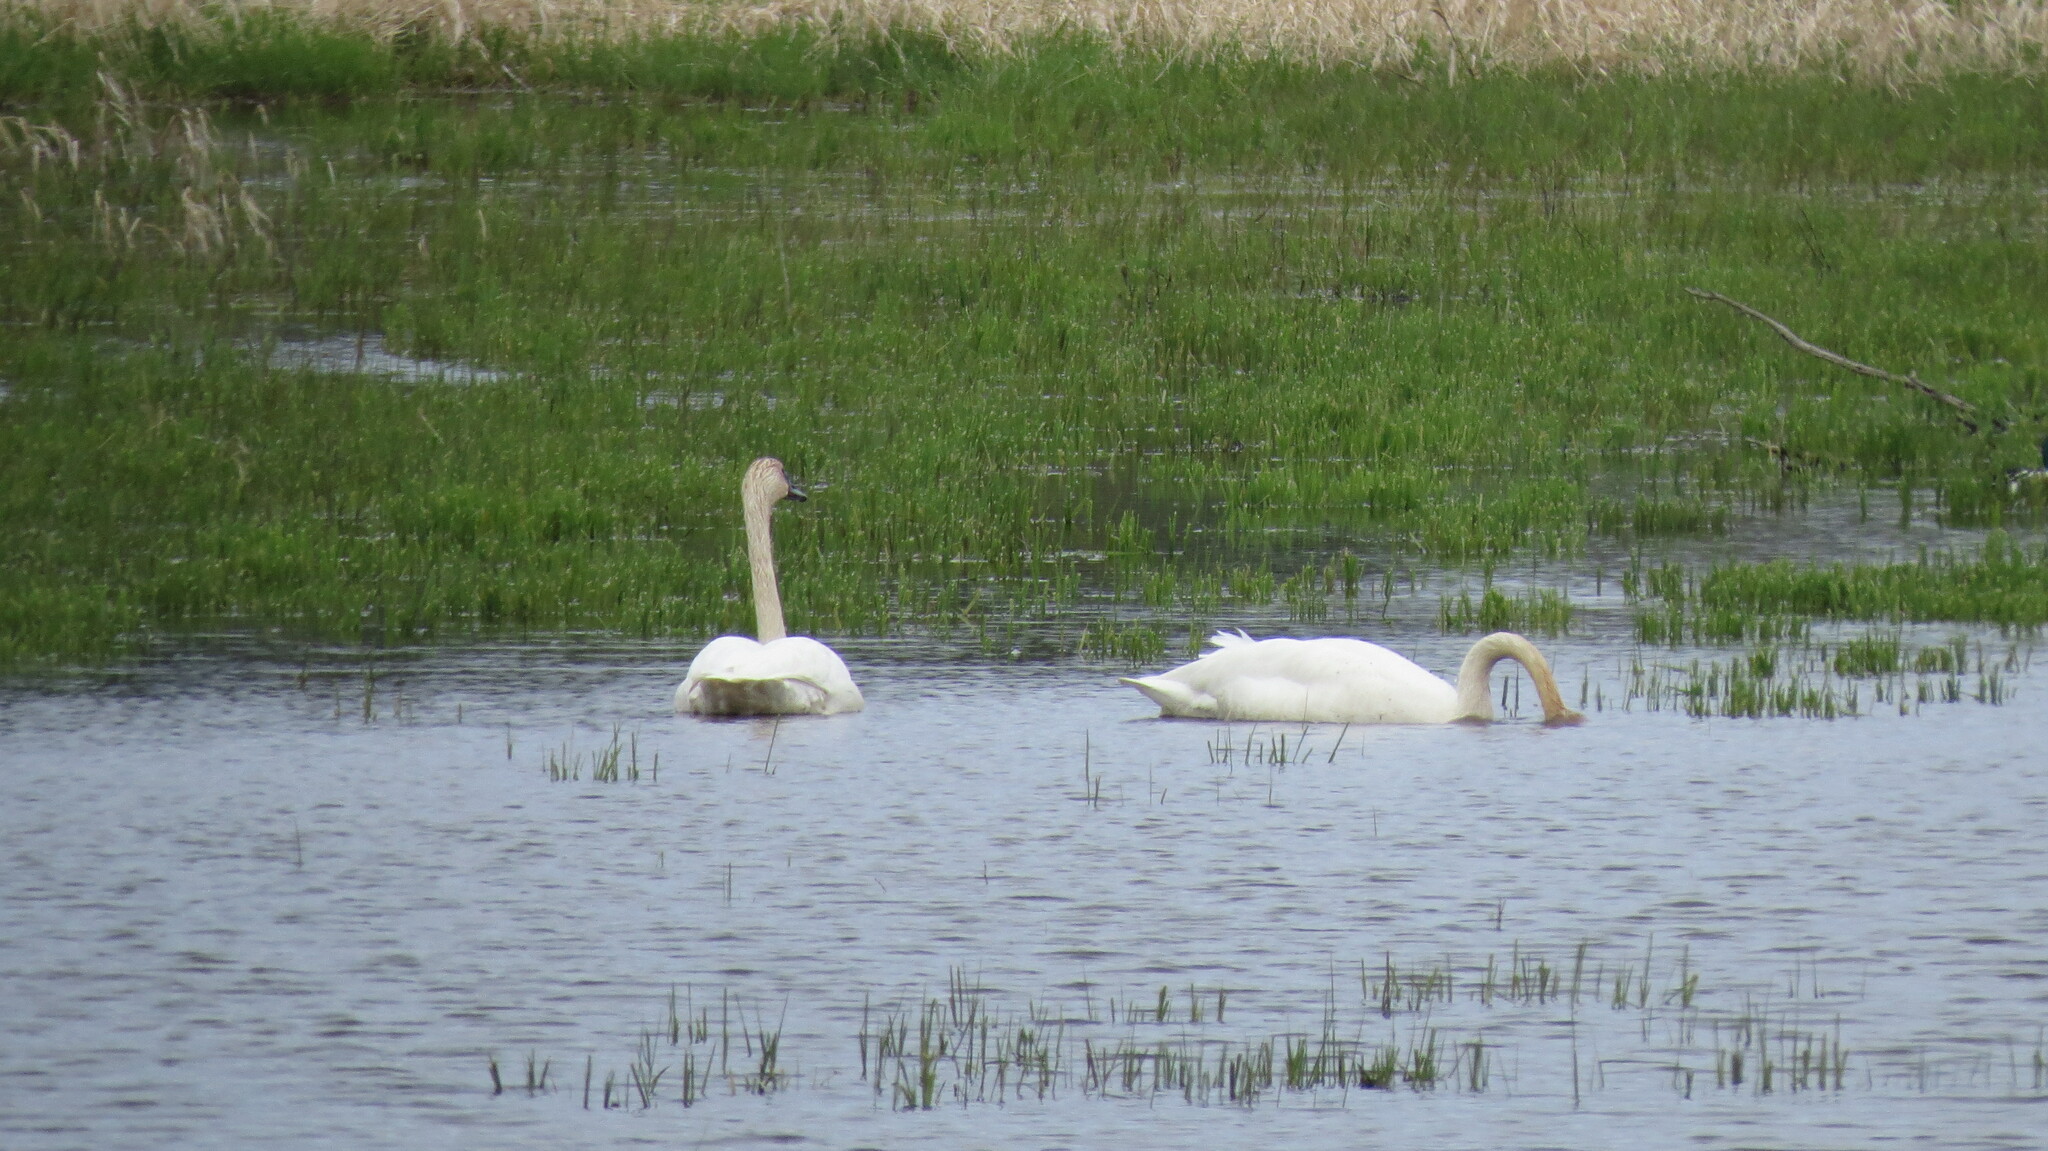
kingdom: Animalia
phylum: Chordata
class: Aves
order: Anseriformes
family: Anatidae
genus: Cygnus
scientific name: Cygnus buccinator
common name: Trumpeter swan
